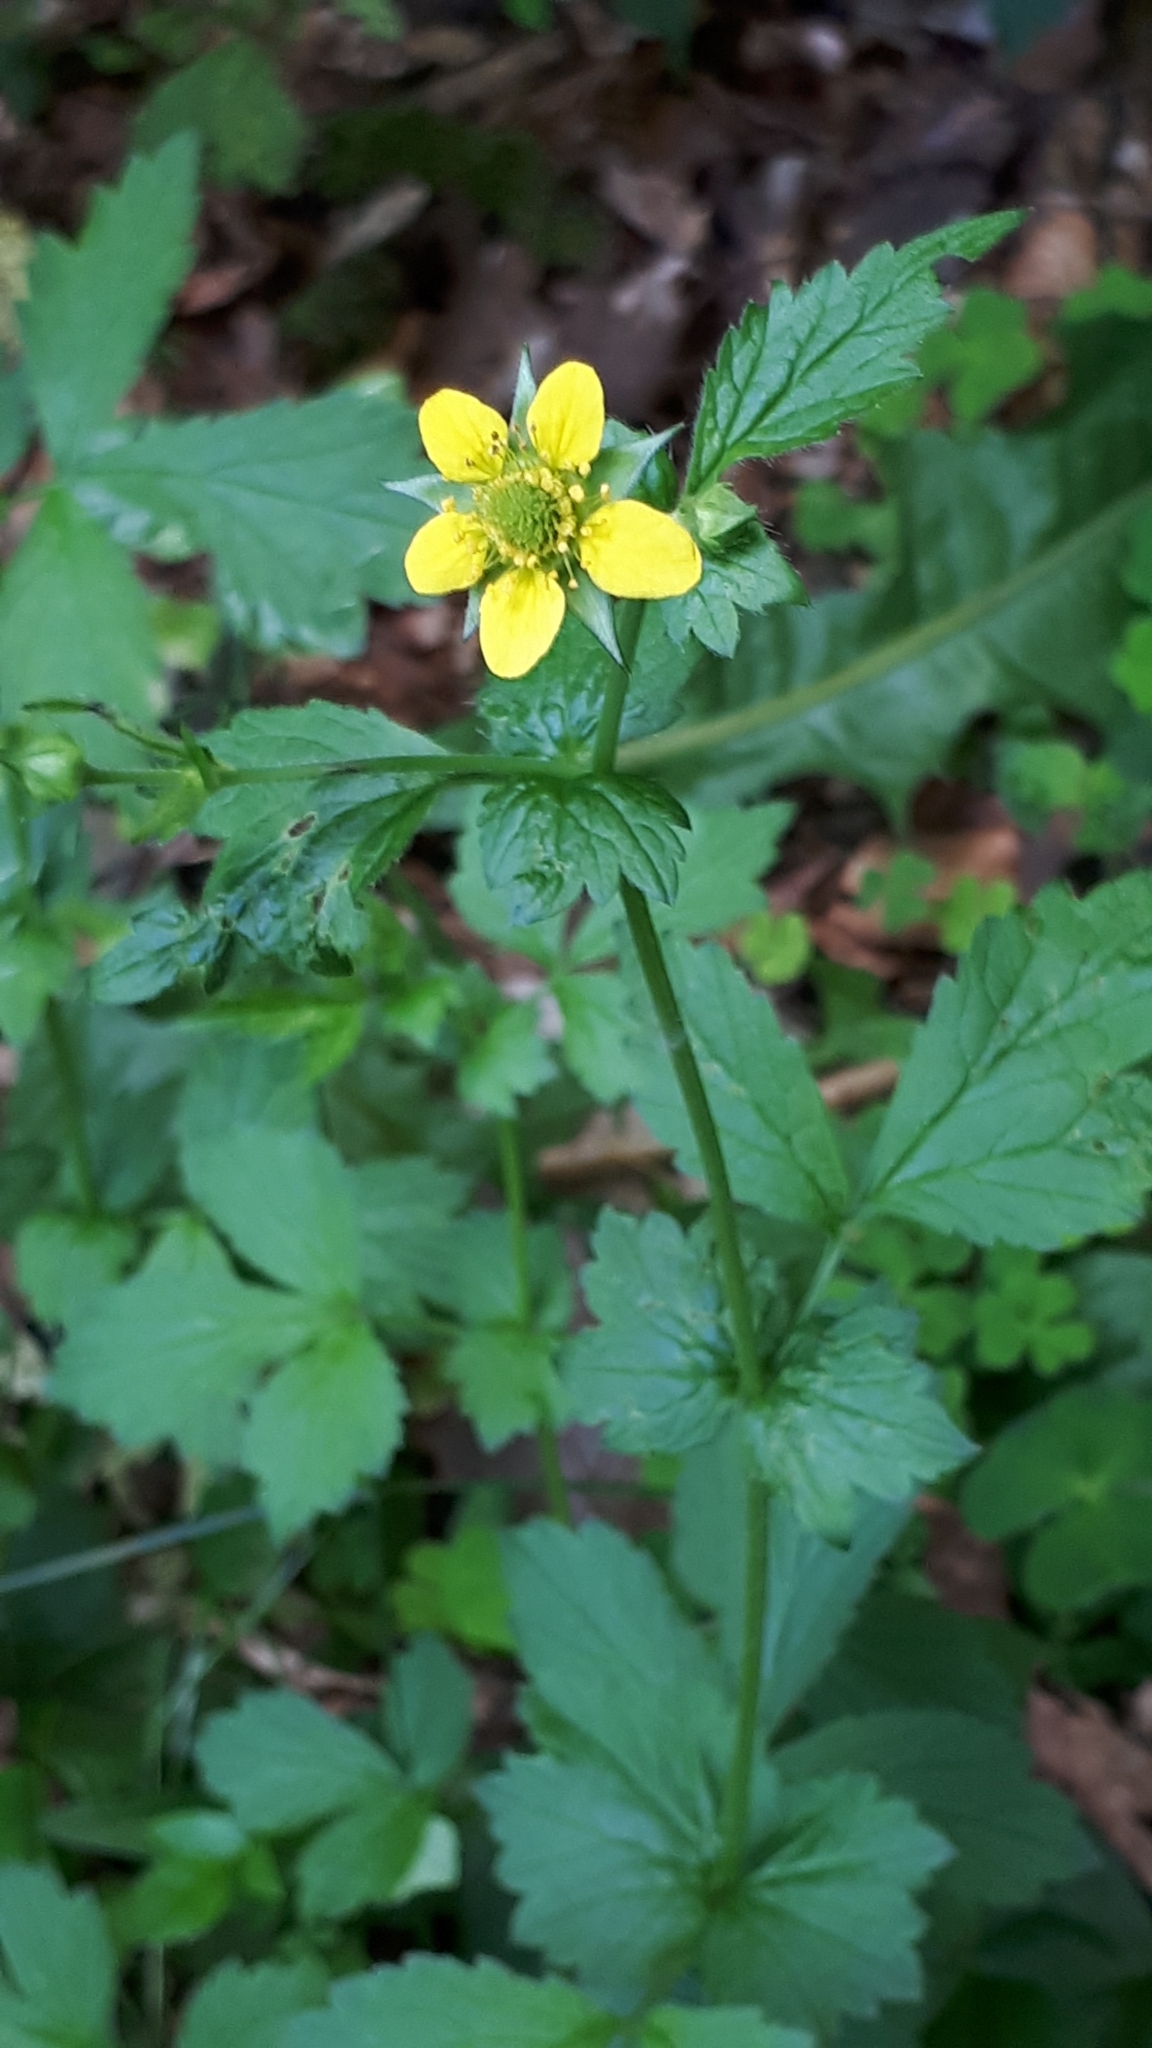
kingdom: Plantae
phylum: Tracheophyta
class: Magnoliopsida
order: Rosales
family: Rosaceae
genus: Geum
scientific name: Geum urbanum
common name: Wood avens
